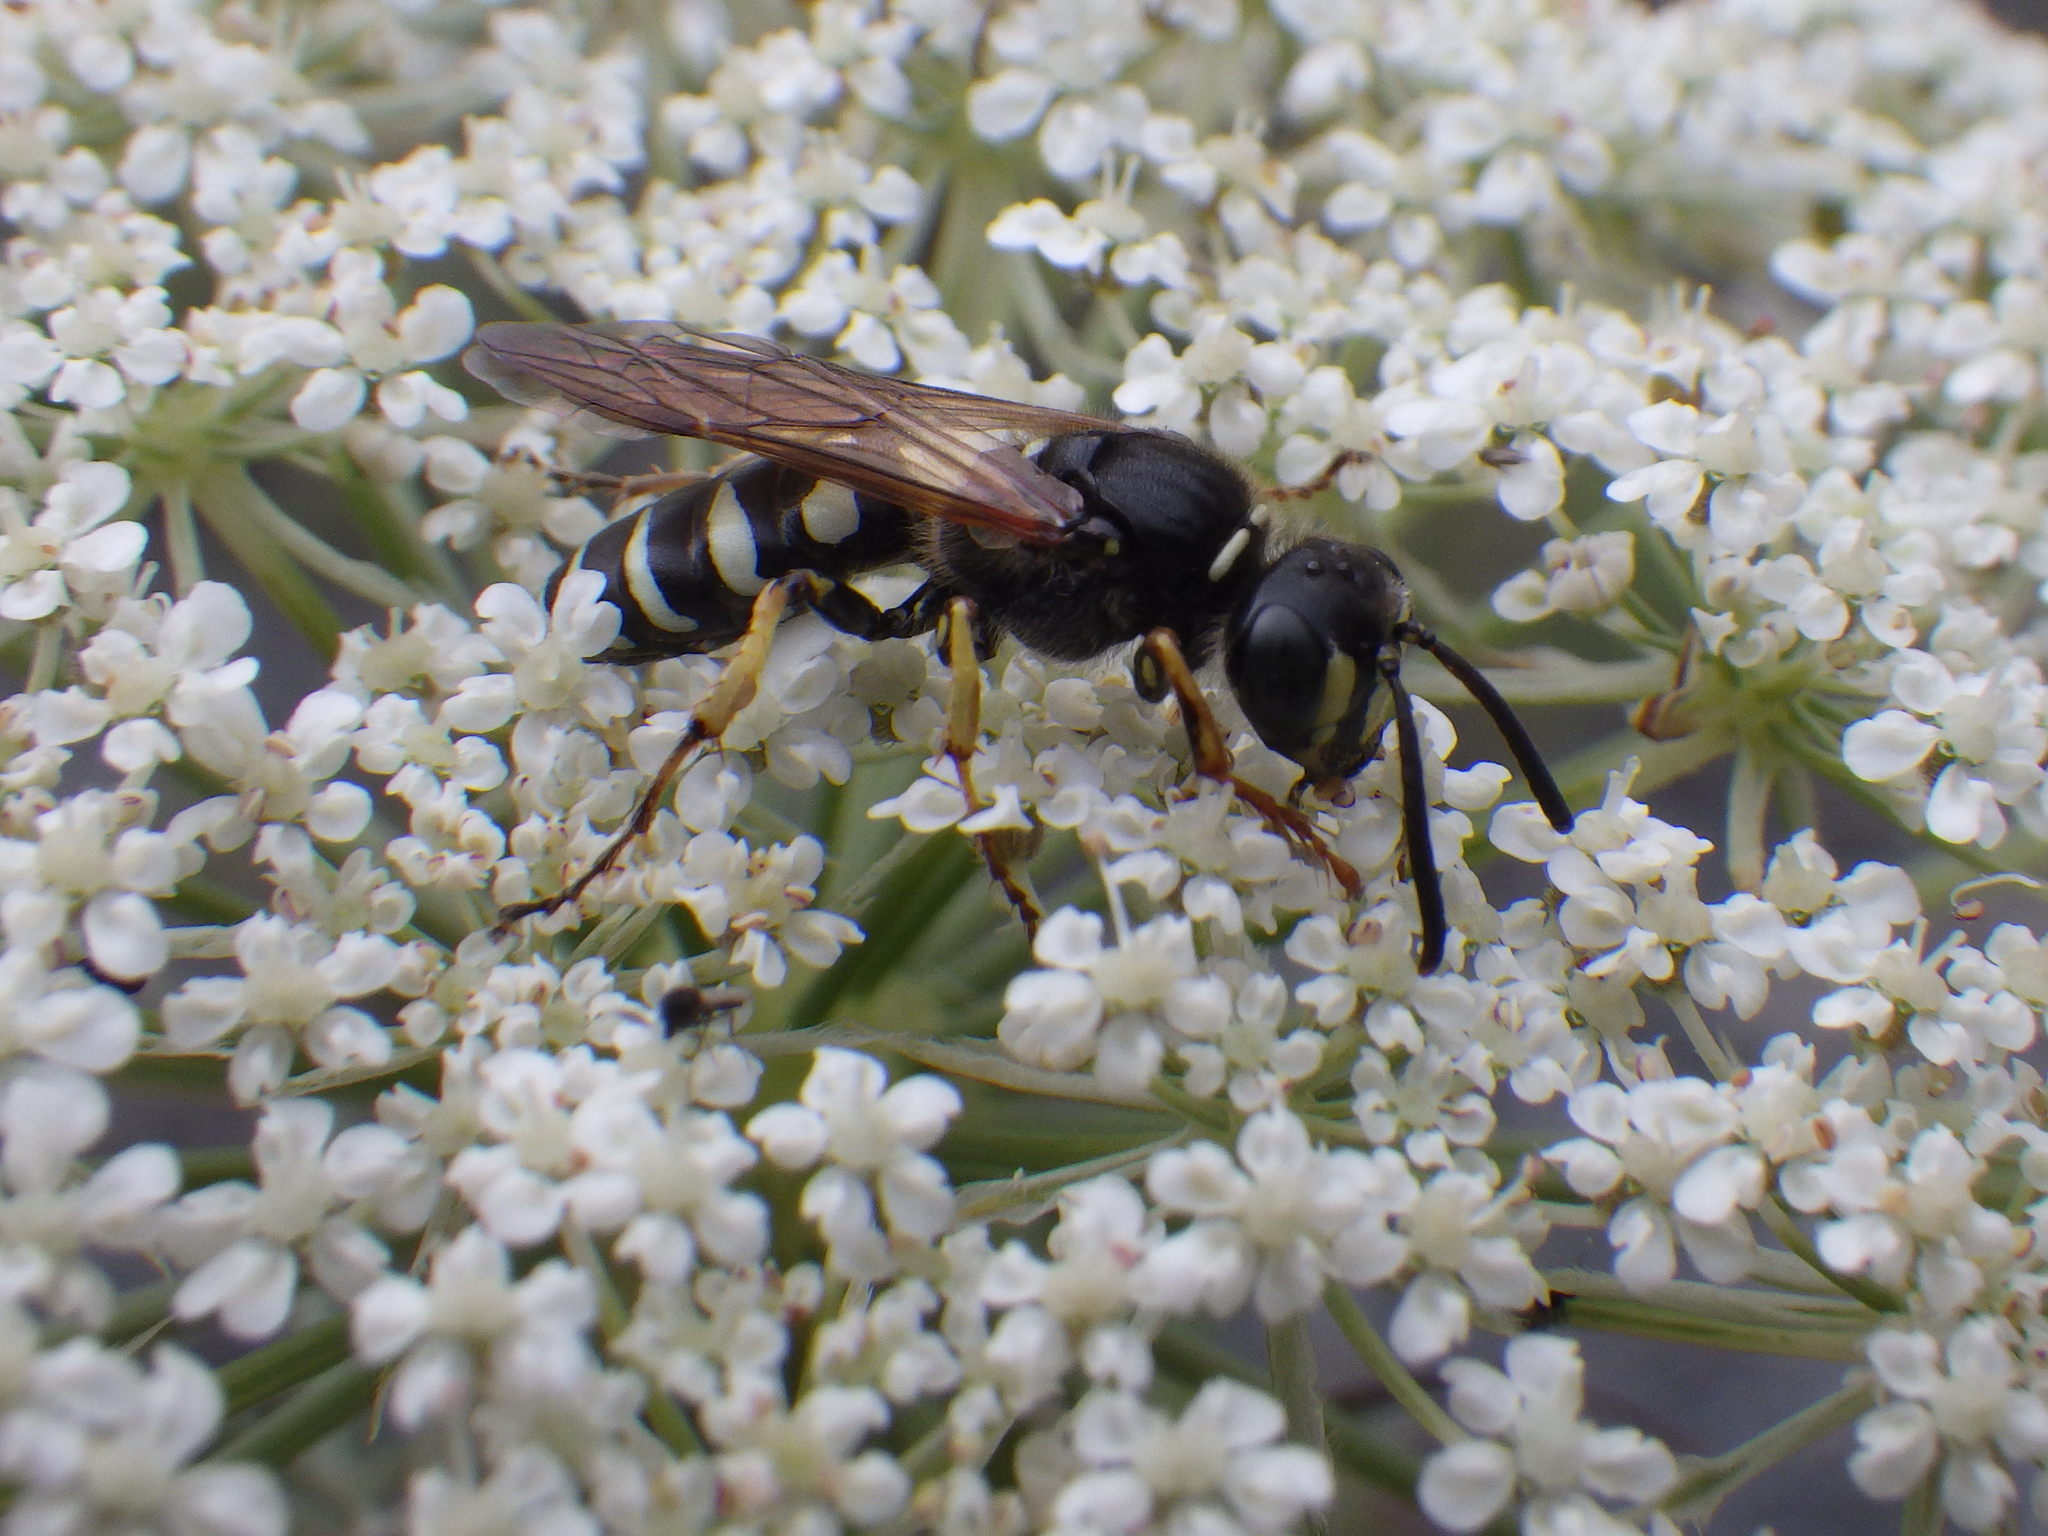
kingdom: Animalia
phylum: Arthropoda
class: Insecta
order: Hymenoptera
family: Crabronidae
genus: Aphilanthops
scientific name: Aphilanthops frigidus
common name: Queen ant kidnapper
